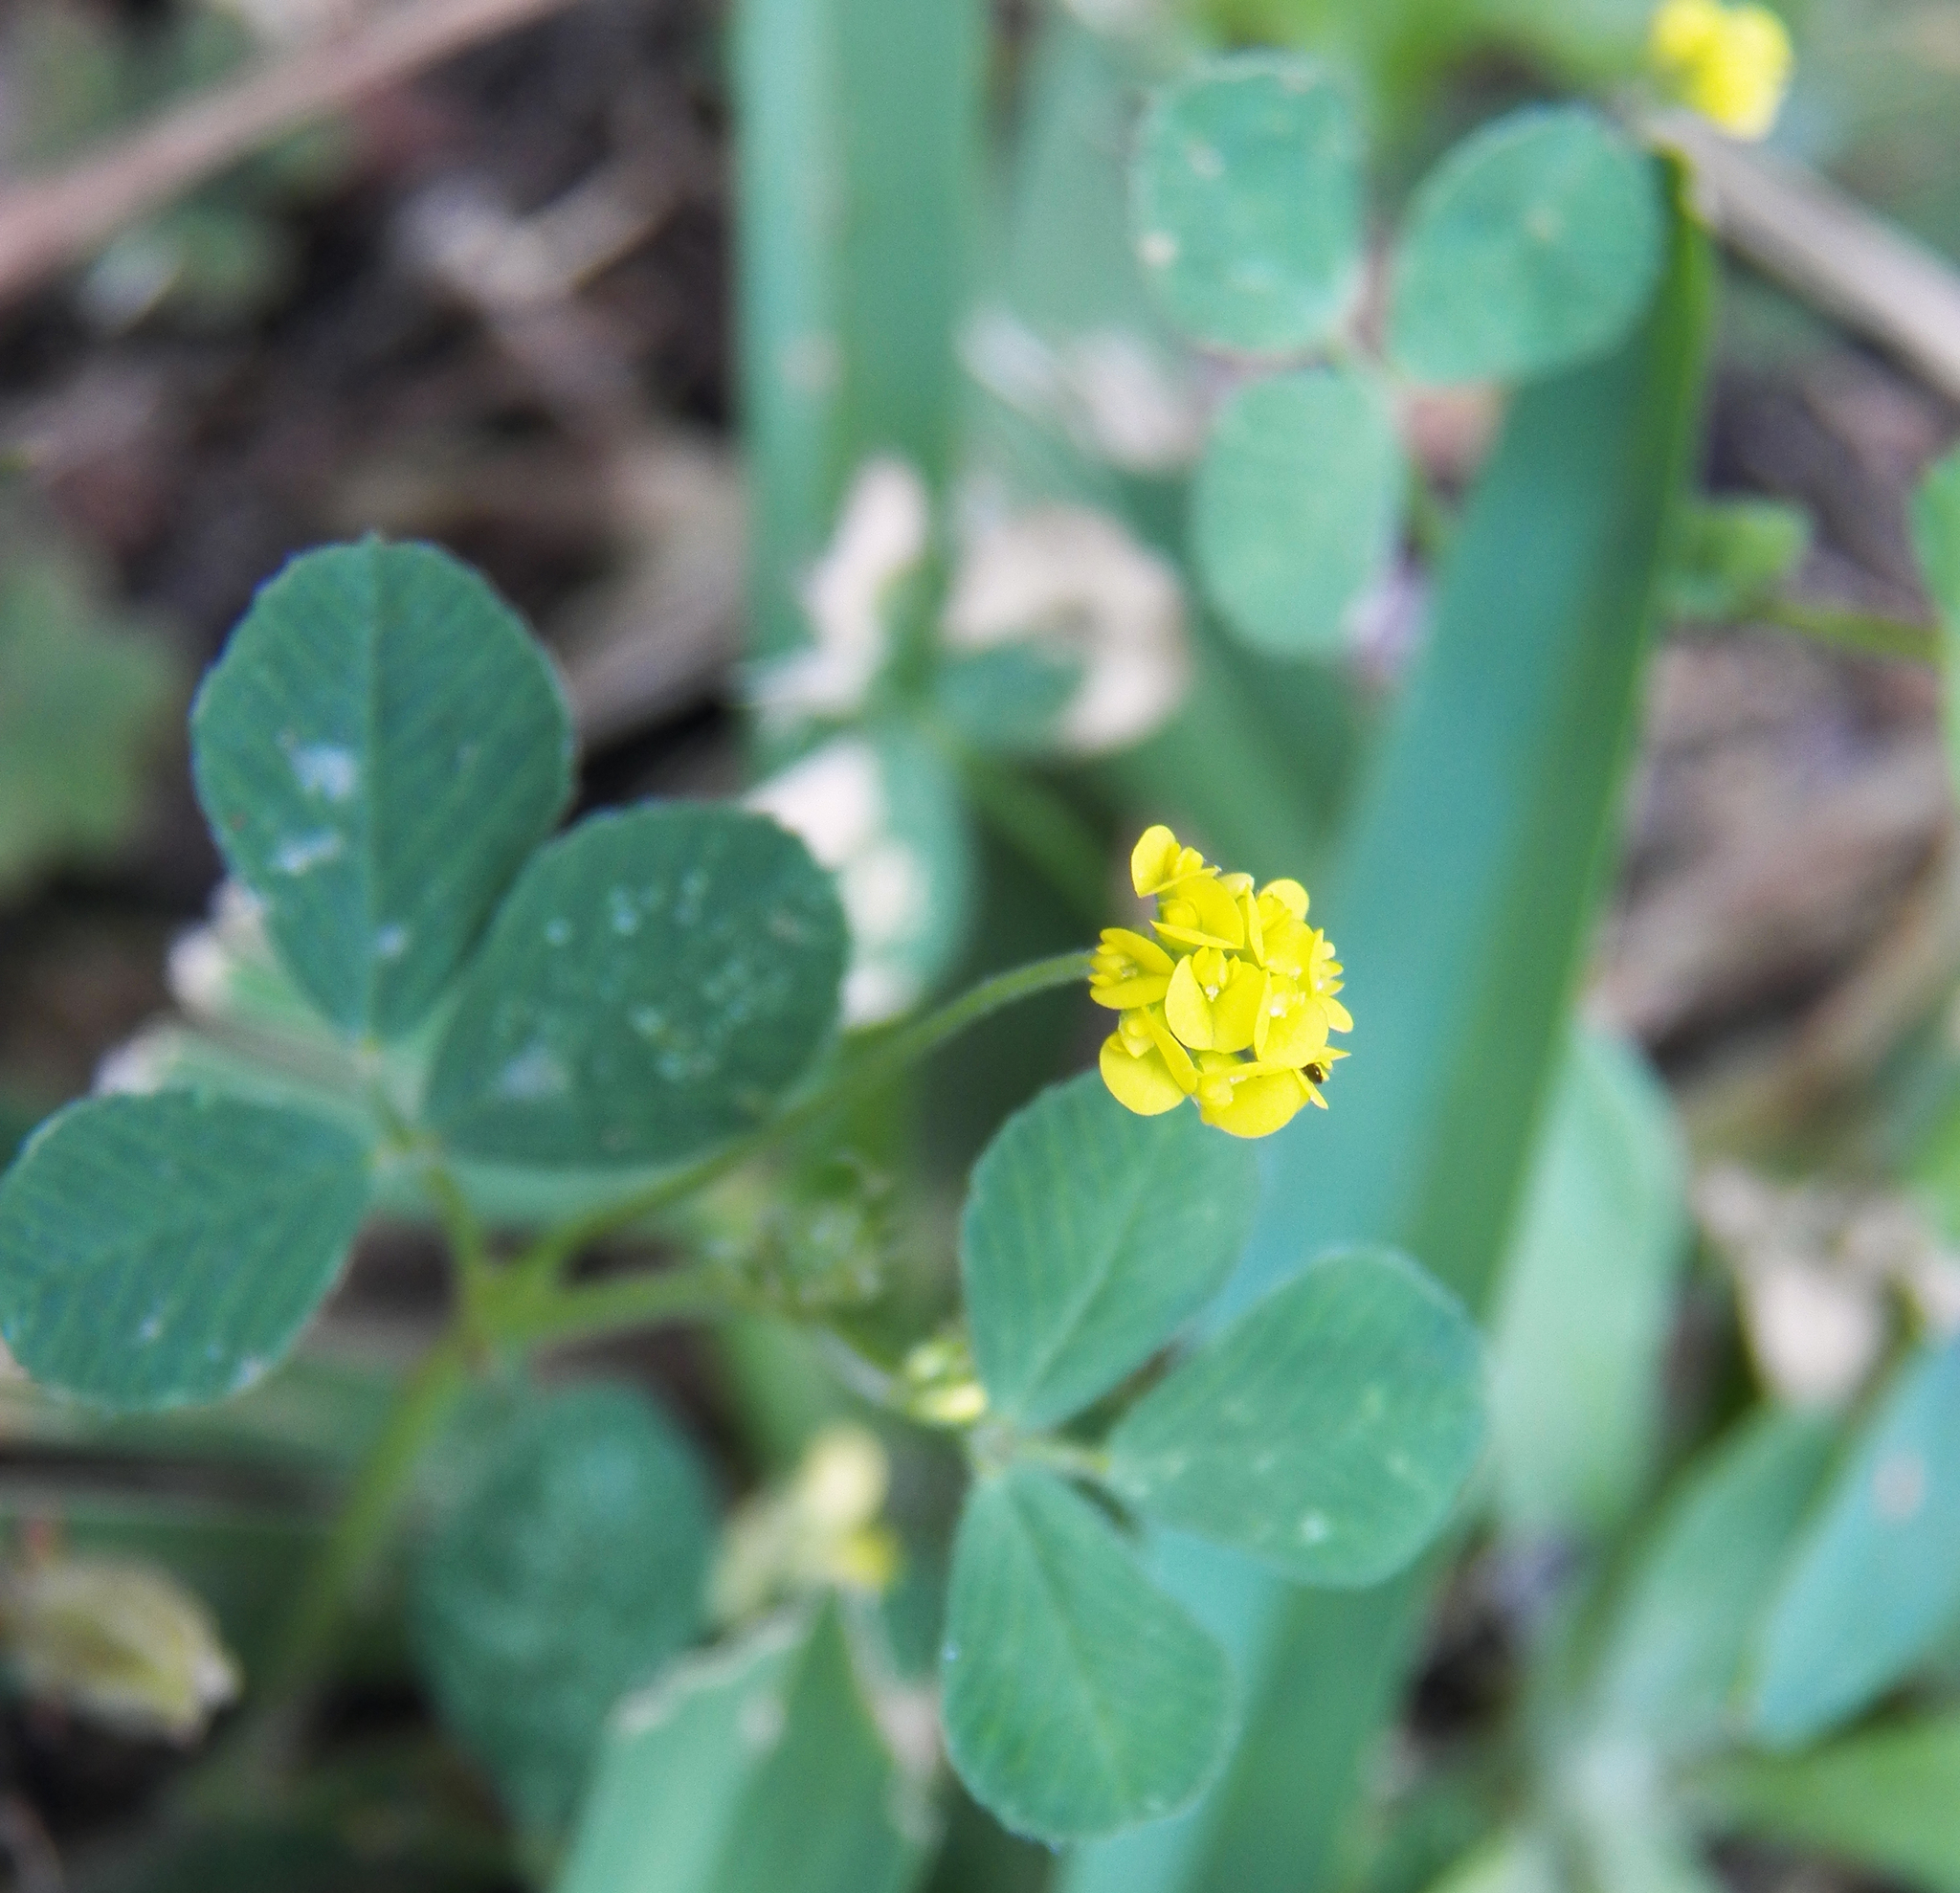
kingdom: Plantae
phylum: Tracheophyta
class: Magnoliopsida
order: Fabales
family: Fabaceae
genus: Medicago
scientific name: Medicago lupulina
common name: Black medick
